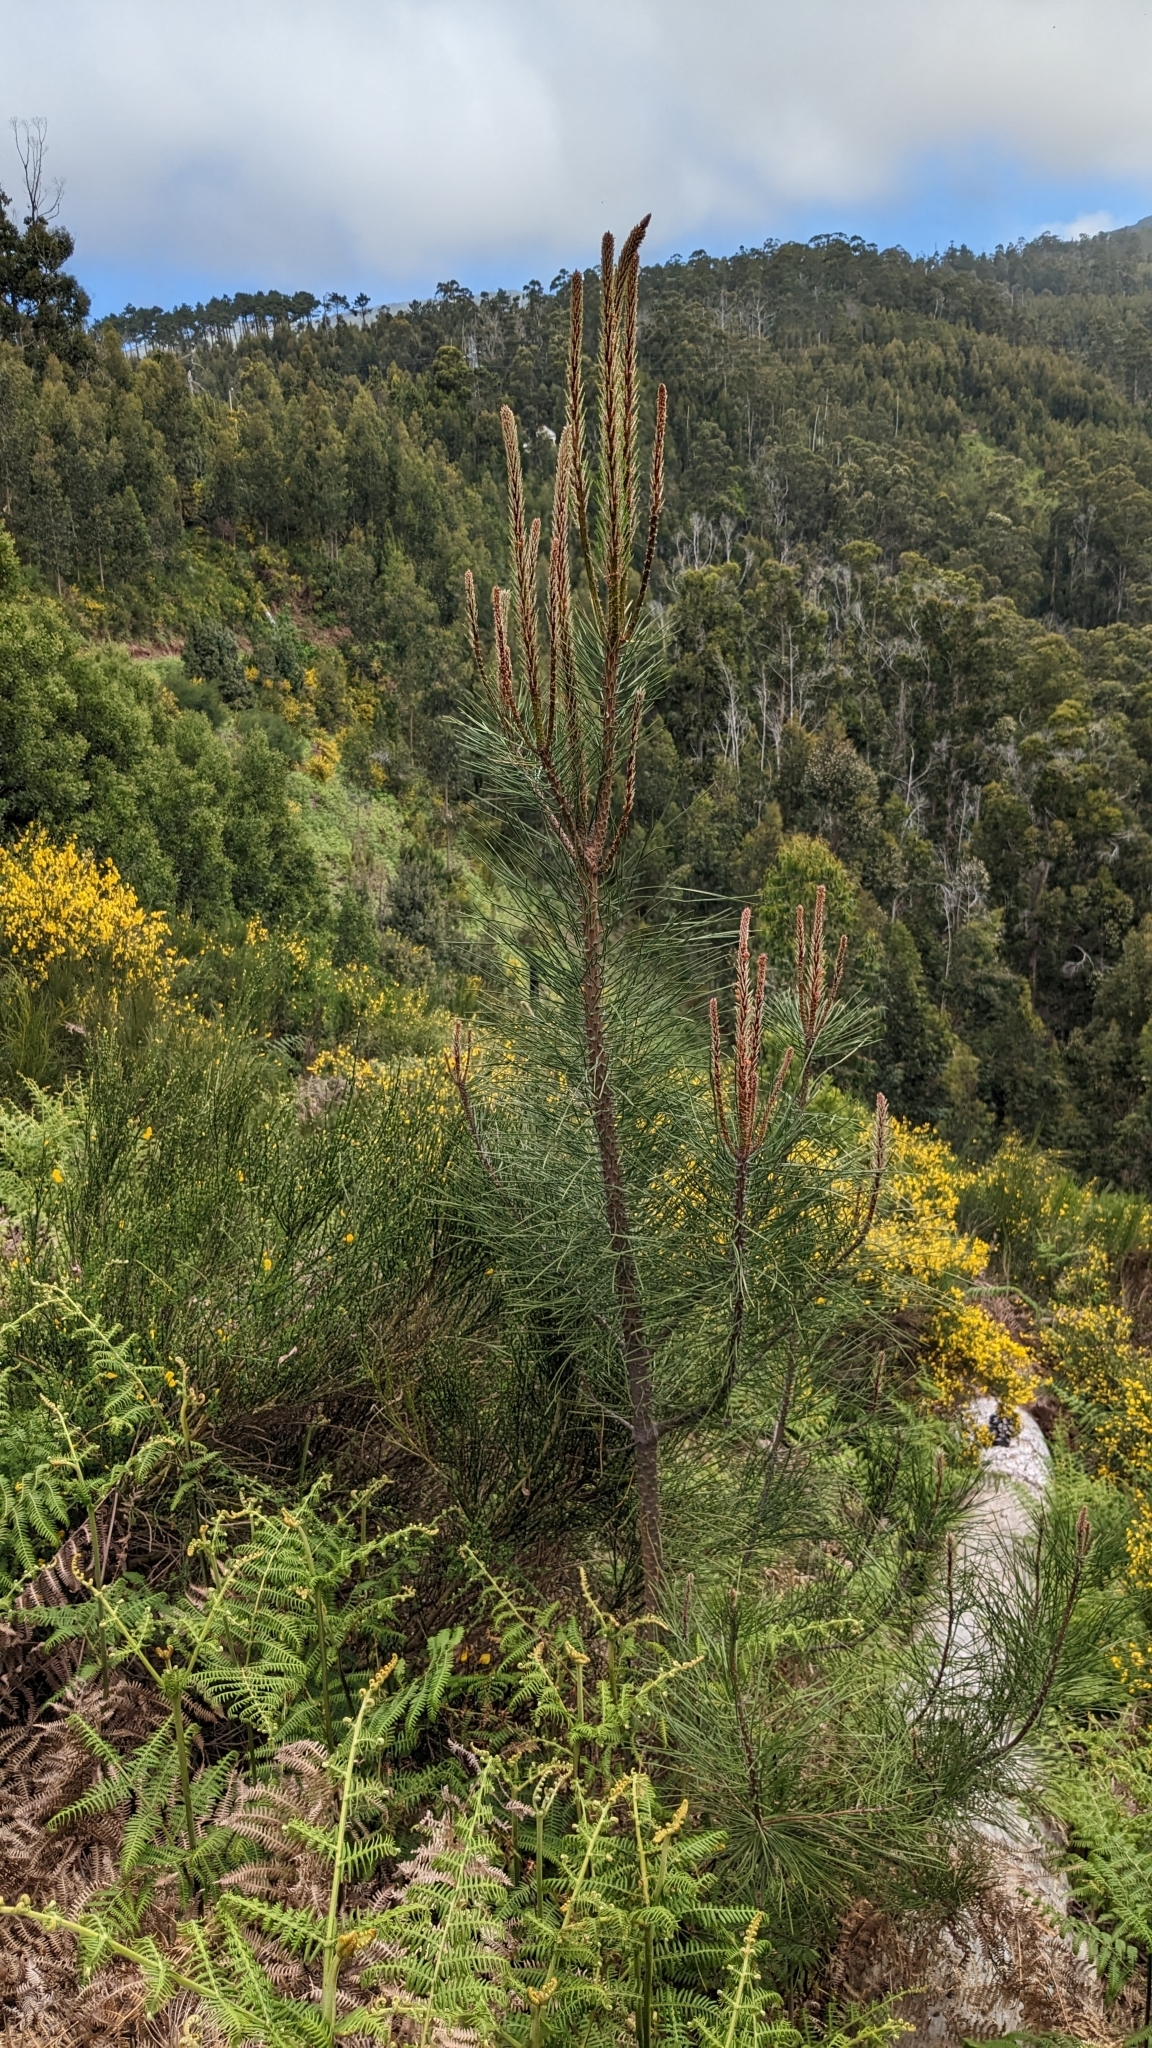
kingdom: Plantae
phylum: Tracheophyta
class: Pinopsida
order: Pinales
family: Pinaceae
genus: Pinus
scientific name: Pinus pinaster
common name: Maritime pine
